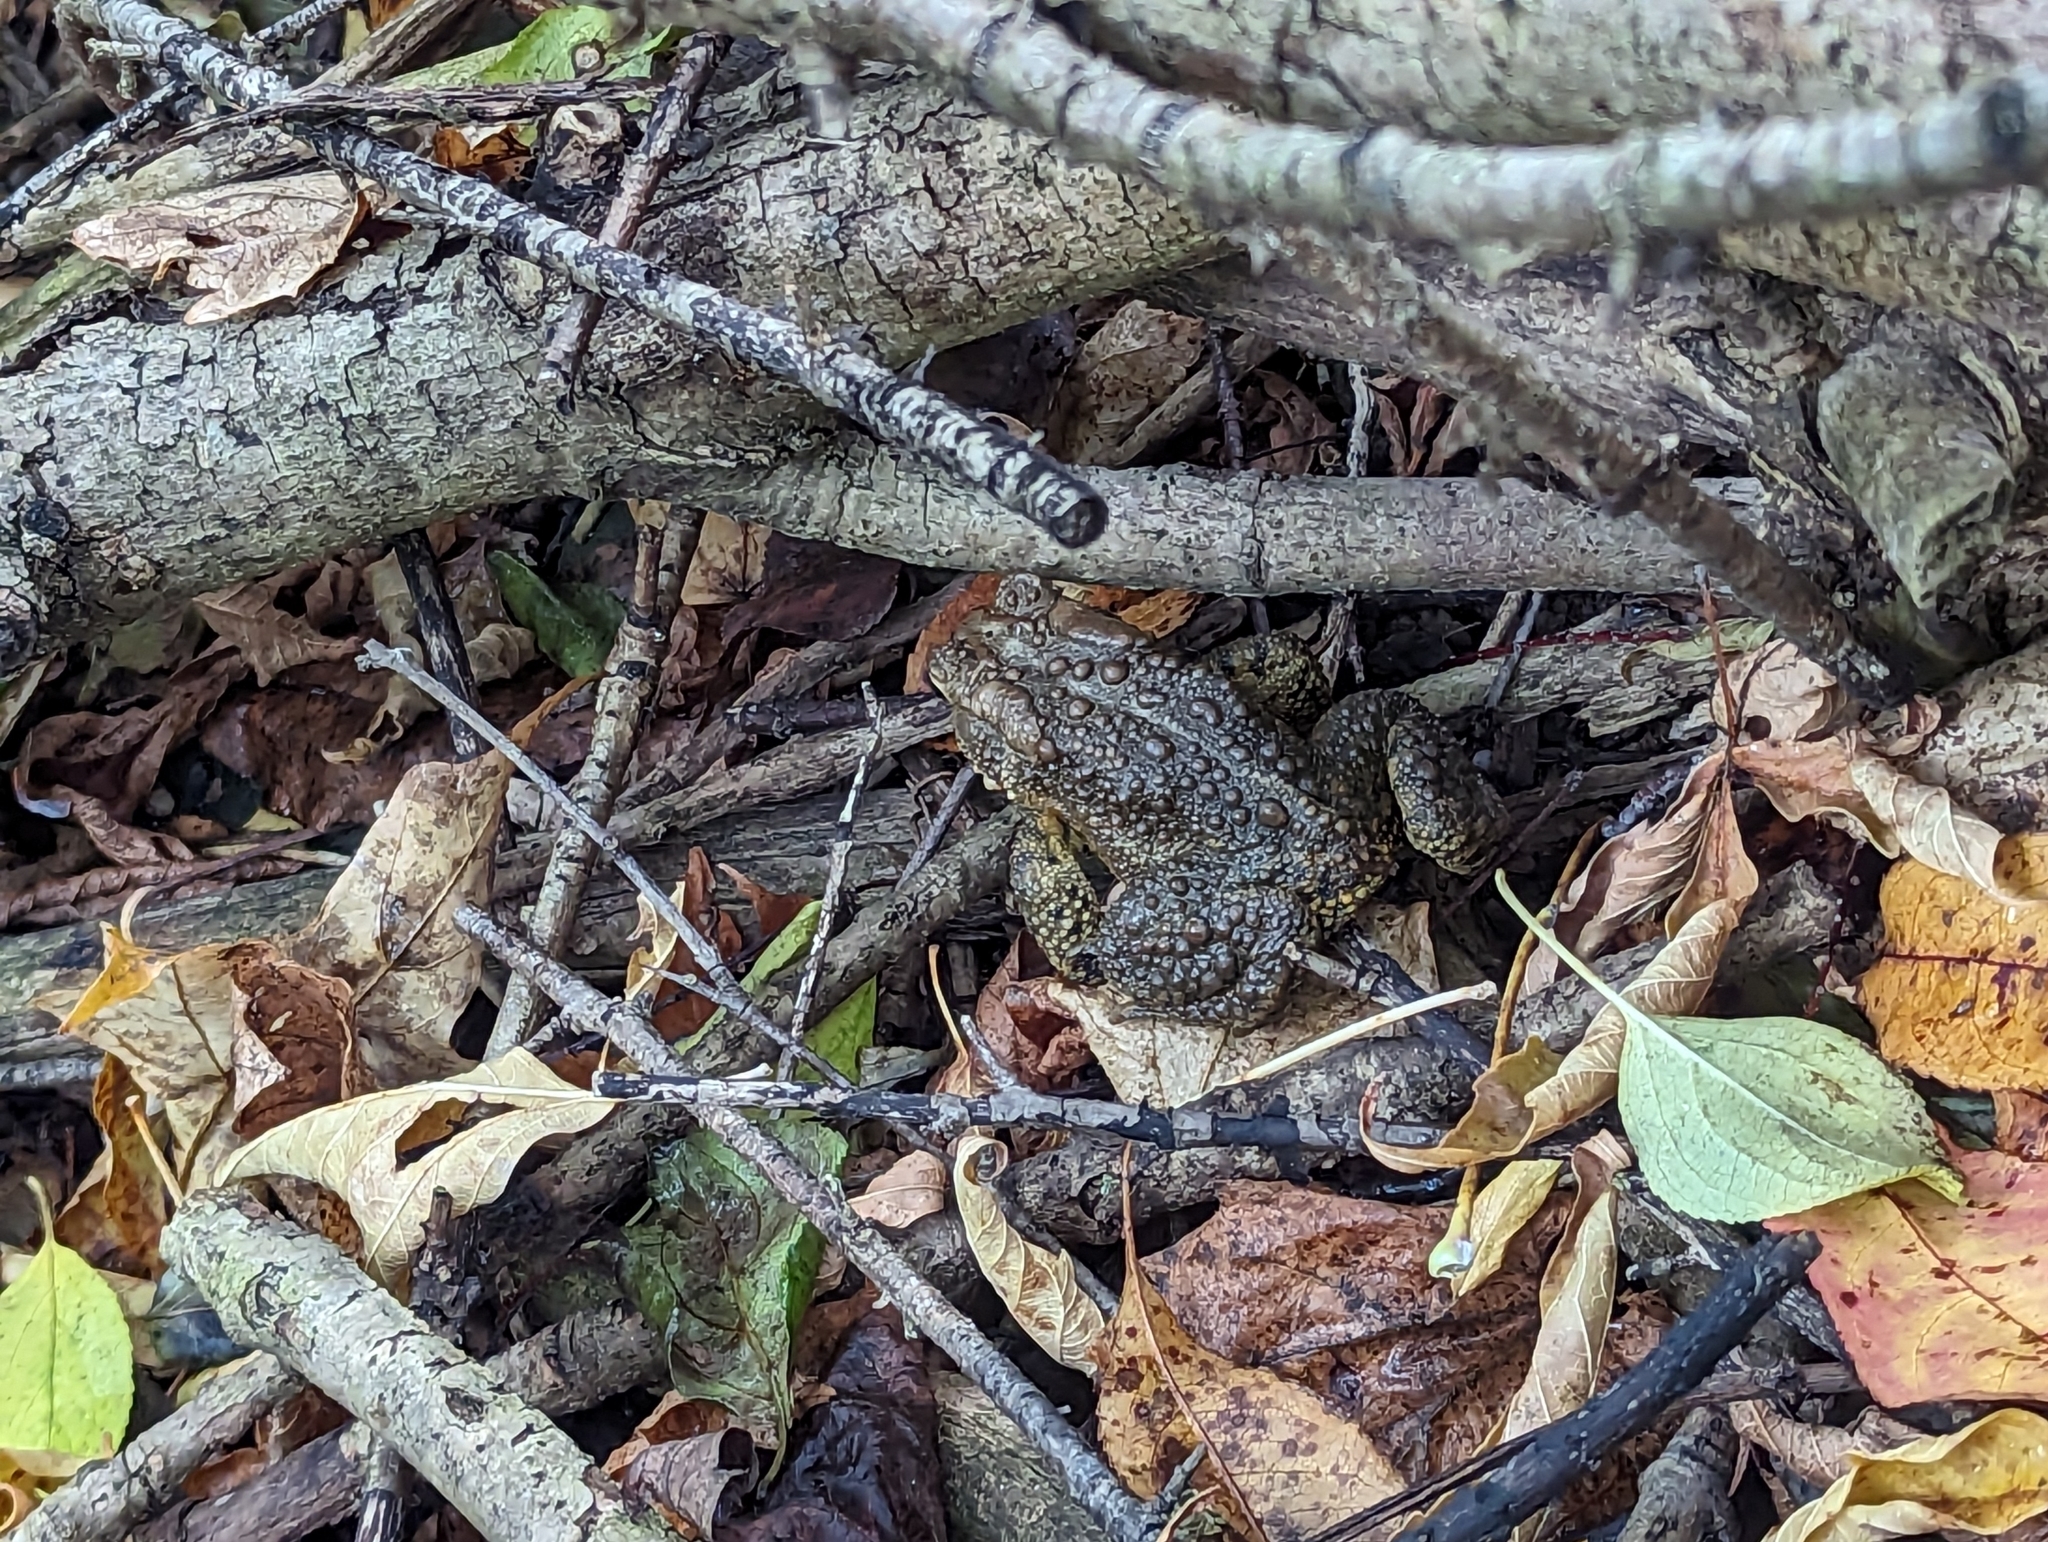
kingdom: Animalia
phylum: Chordata
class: Amphibia
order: Anura
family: Bufonidae
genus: Anaxyrus
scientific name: Anaxyrus americanus
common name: American toad
